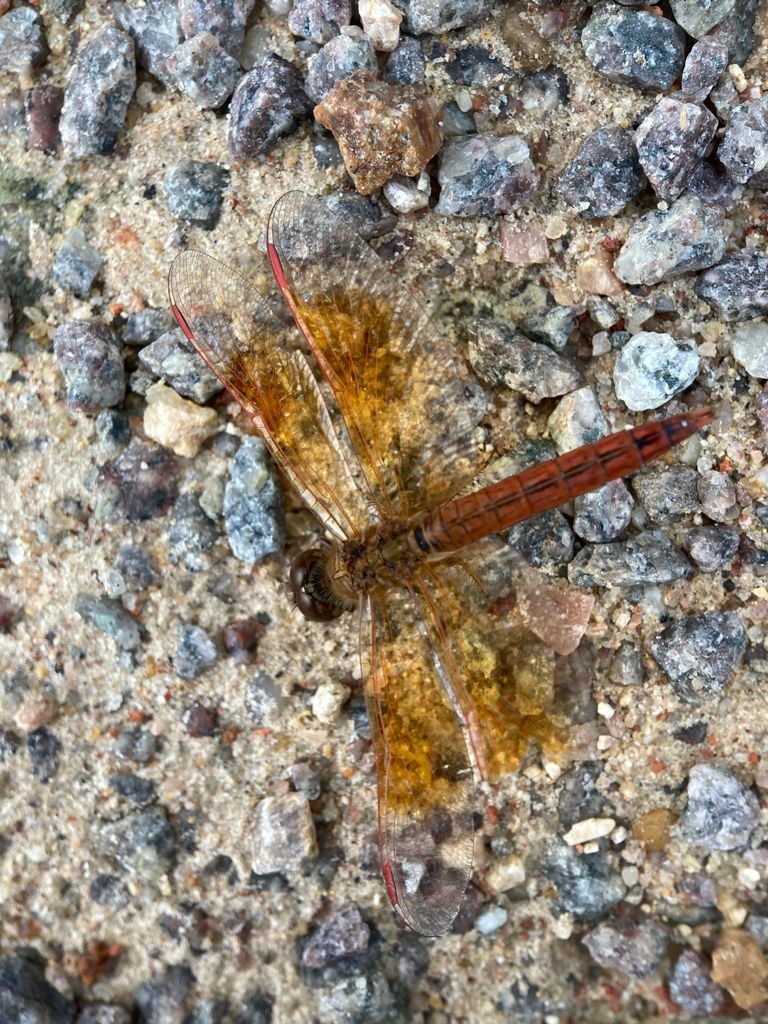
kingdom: Animalia
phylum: Arthropoda
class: Insecta
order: Odonata
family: Libellulidae
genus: Brachythemis
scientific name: Brachythemis contaminata
